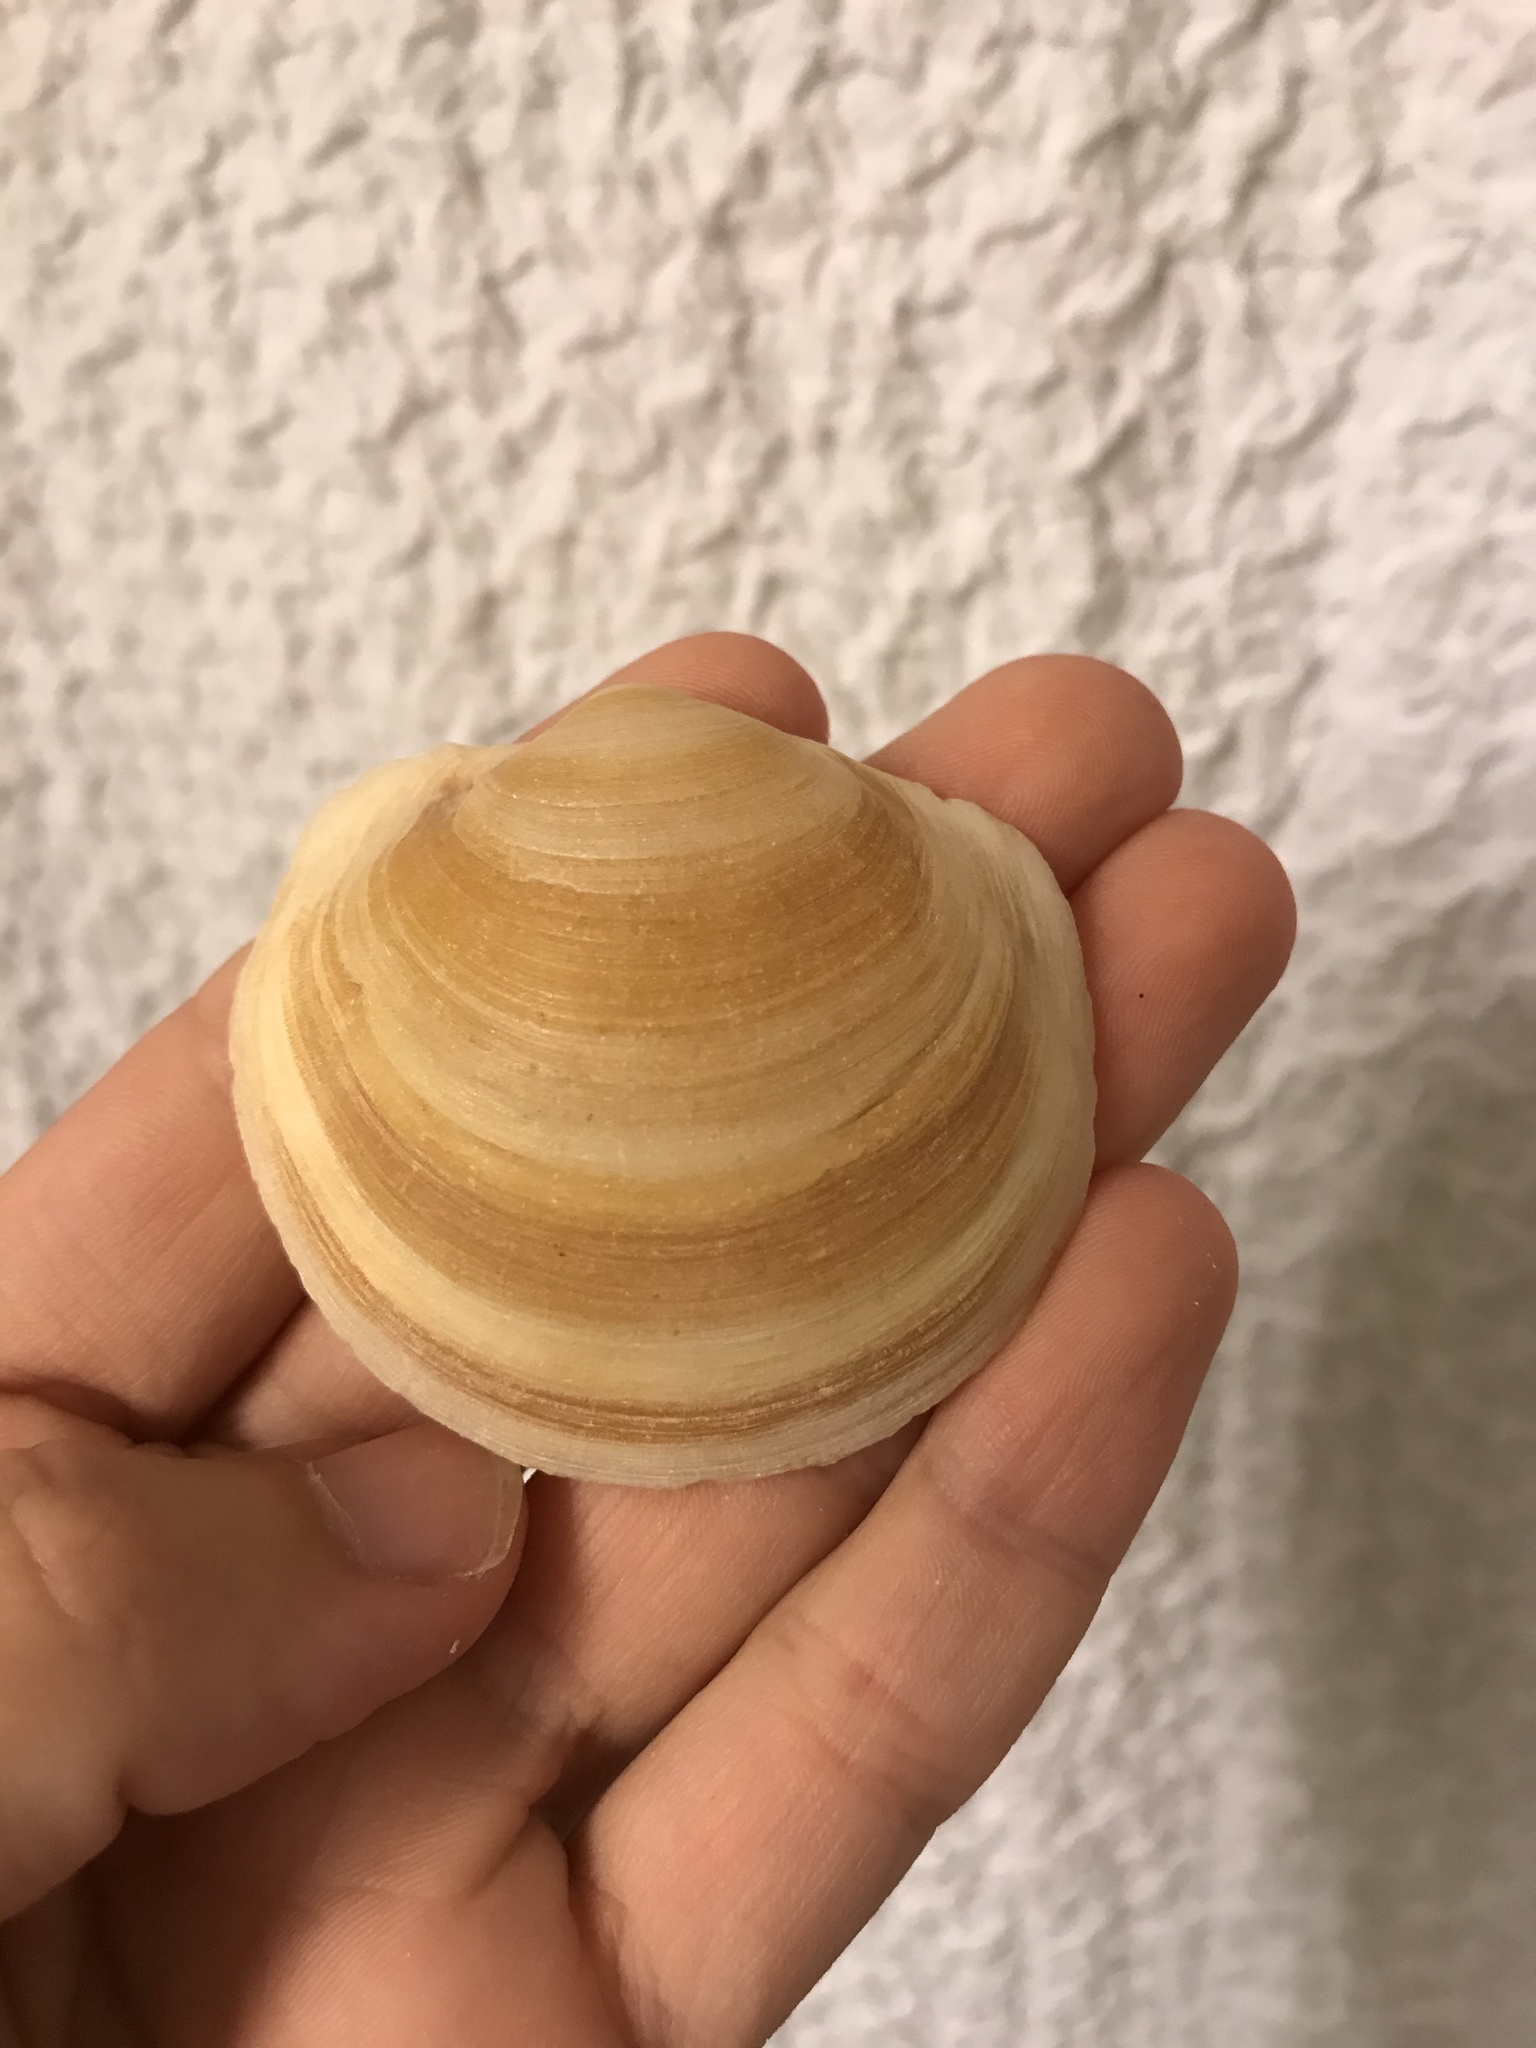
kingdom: Animalia
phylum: Mollusca
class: Bivalvia
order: Lucinida
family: Lucinidae
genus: Anodontia
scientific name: Anodontia alba
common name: Buttercup lucine
